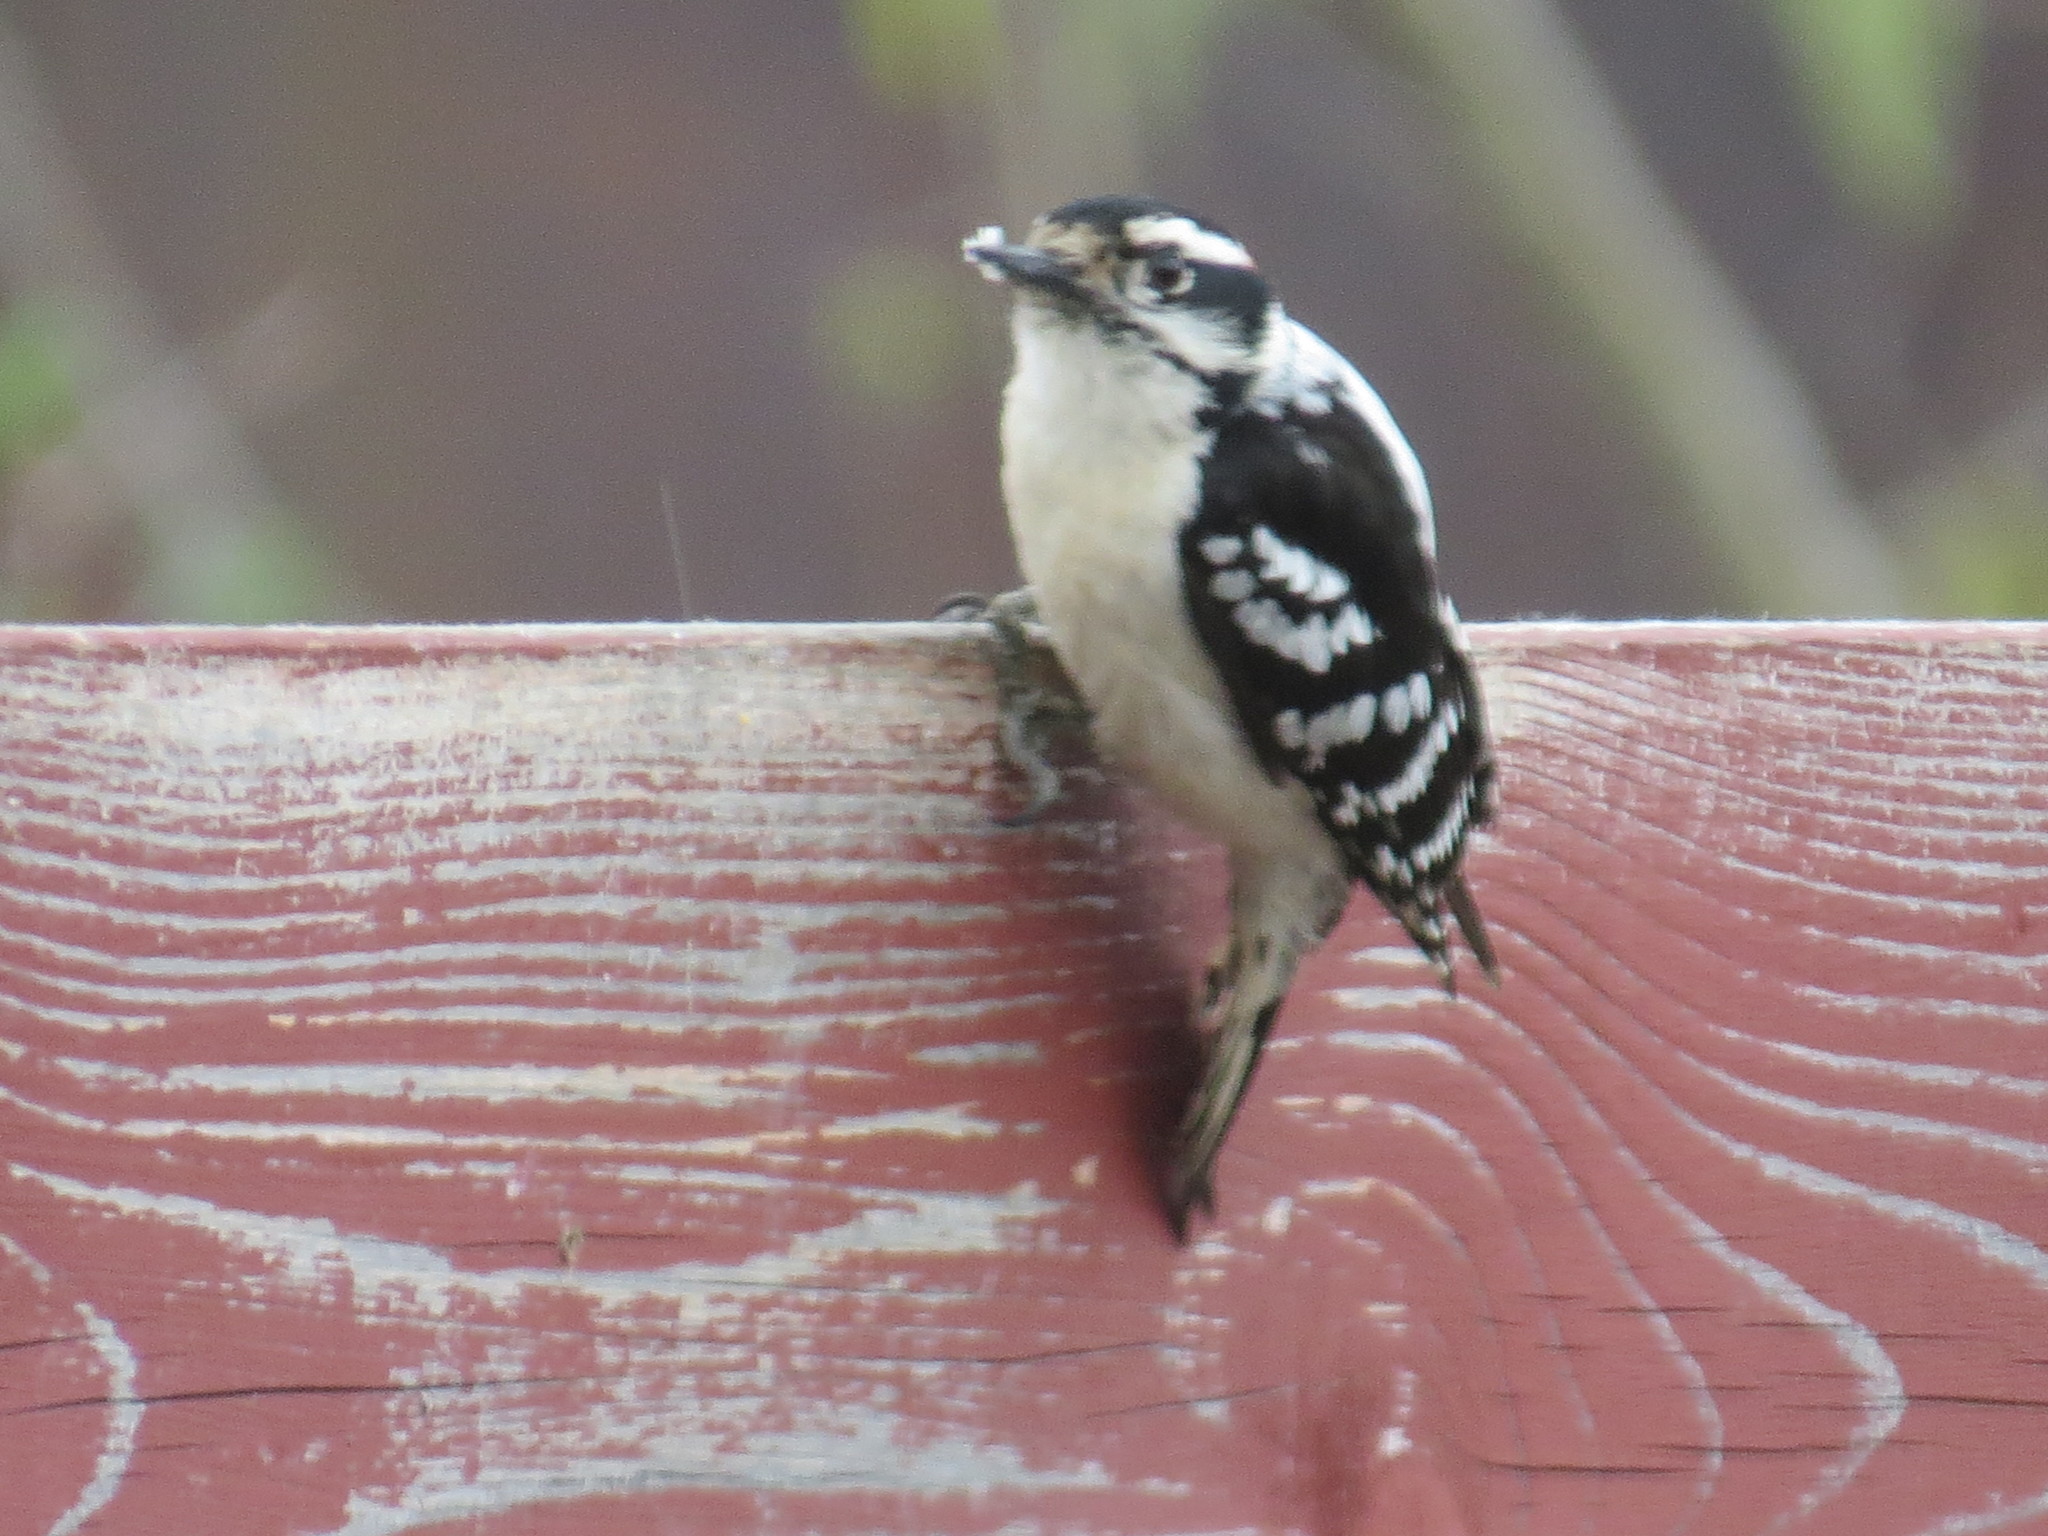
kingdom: Animalia
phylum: Chordata
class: Aves
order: Piciformes
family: Picidae
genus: Dryobates
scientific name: Dryobates pubescens
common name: Downy woodpecker
